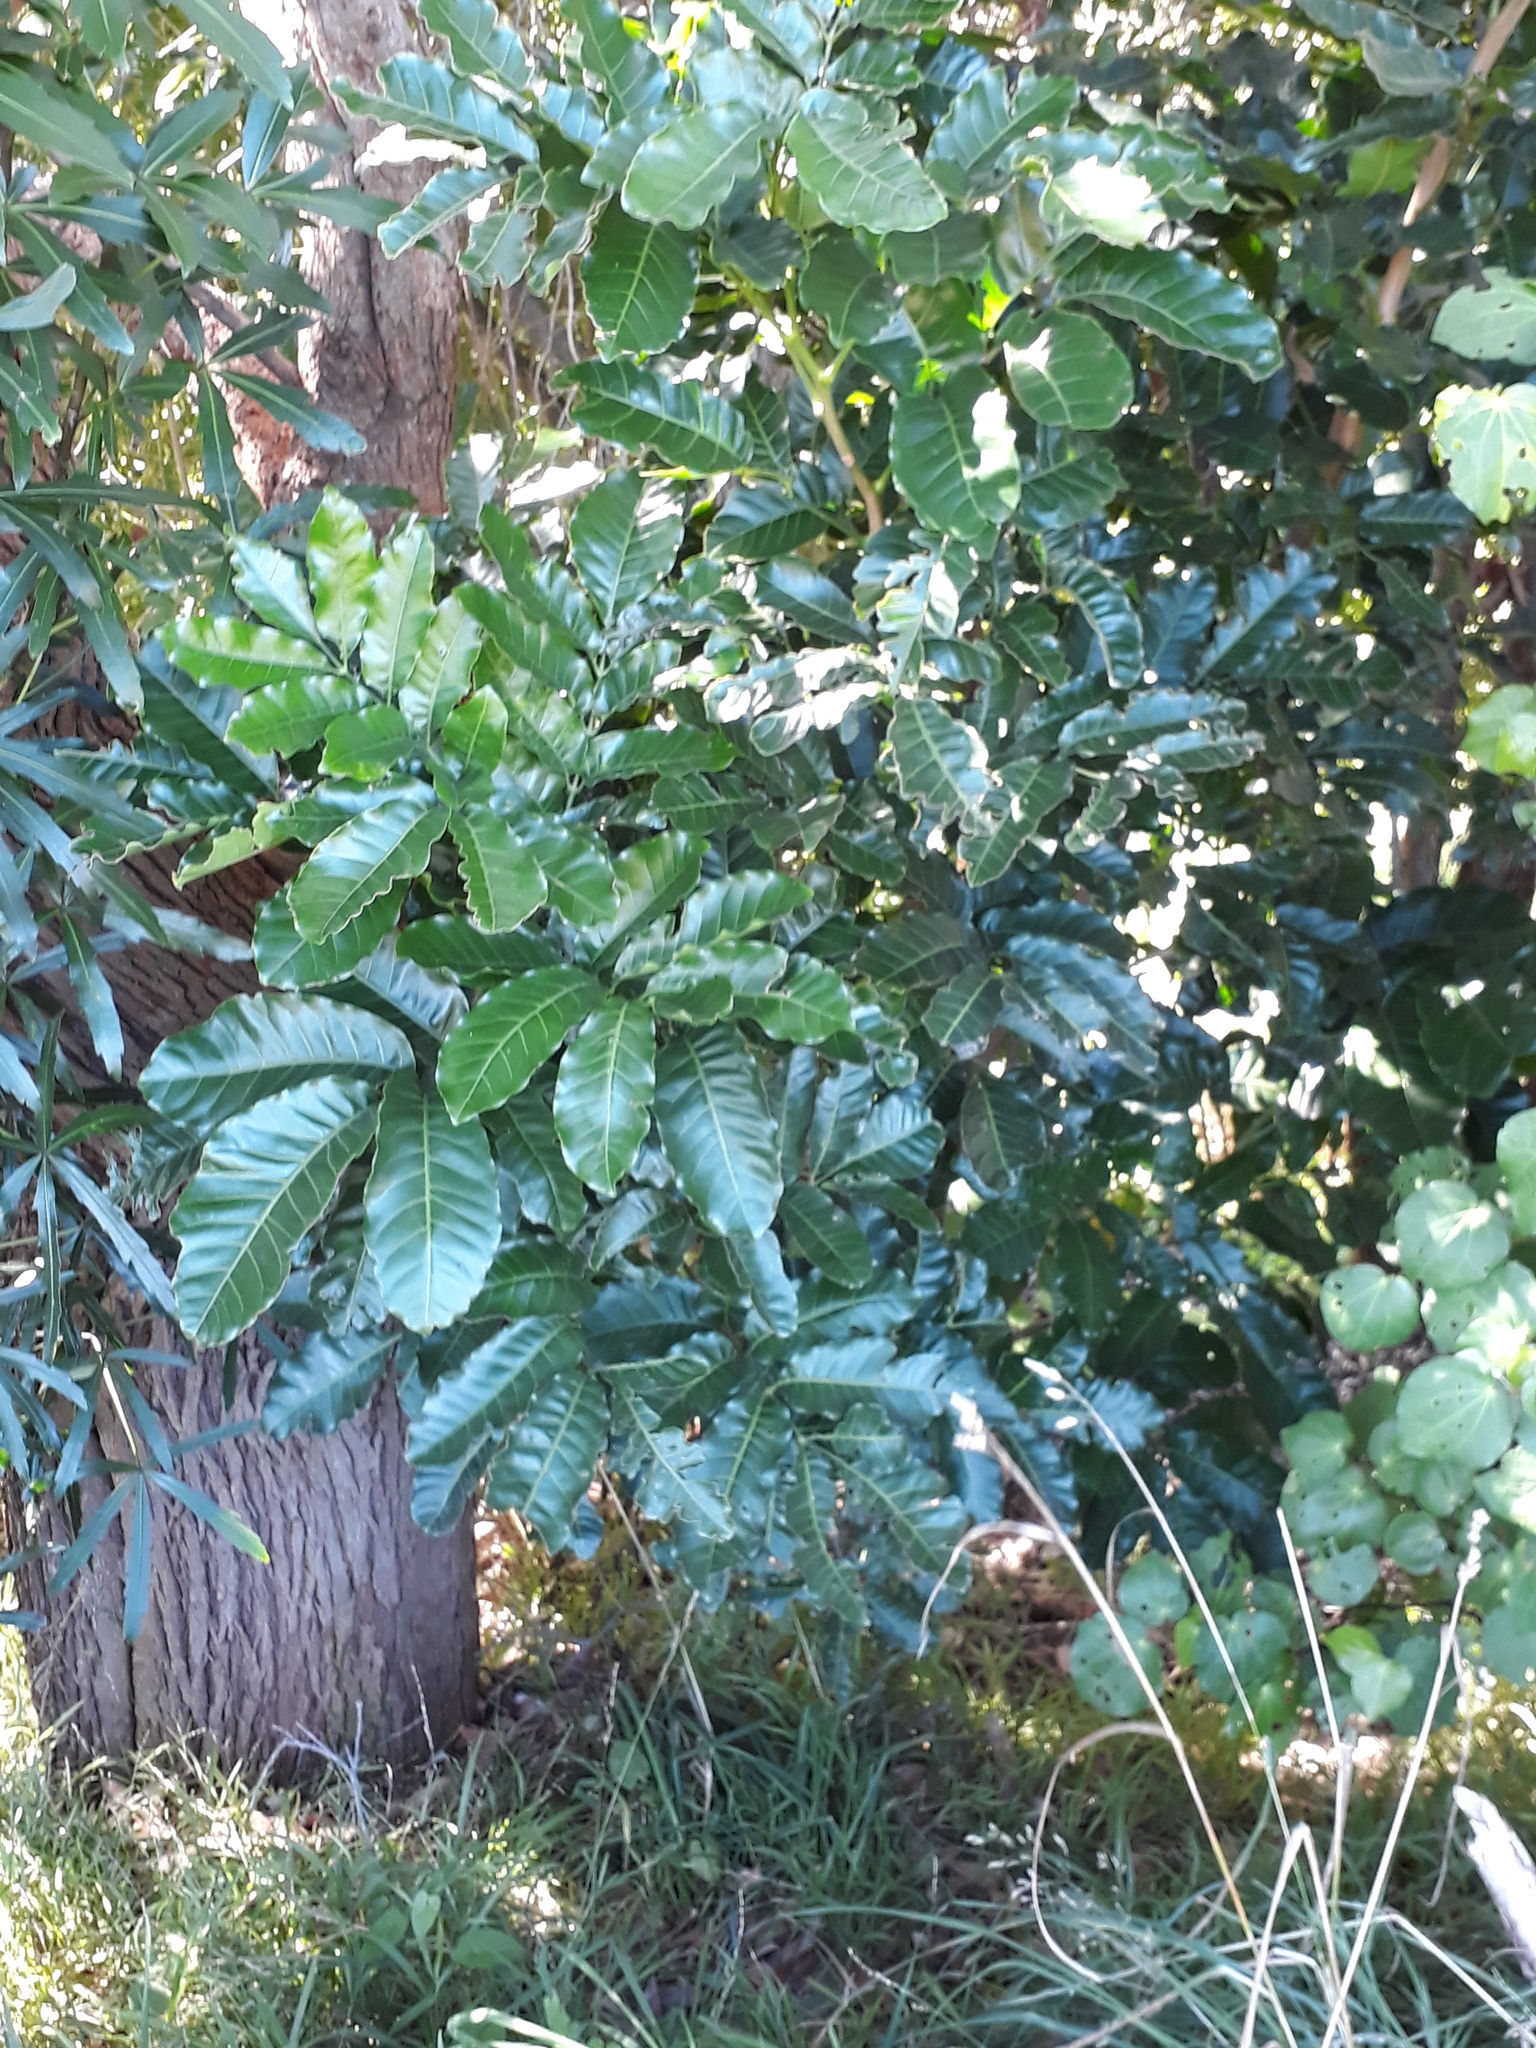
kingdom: Plantae
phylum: Tracheophyta
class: Magnoliopsida
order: Sapindales
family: Meliaceae
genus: Didymocheton
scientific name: Didymocheton spectabilis
